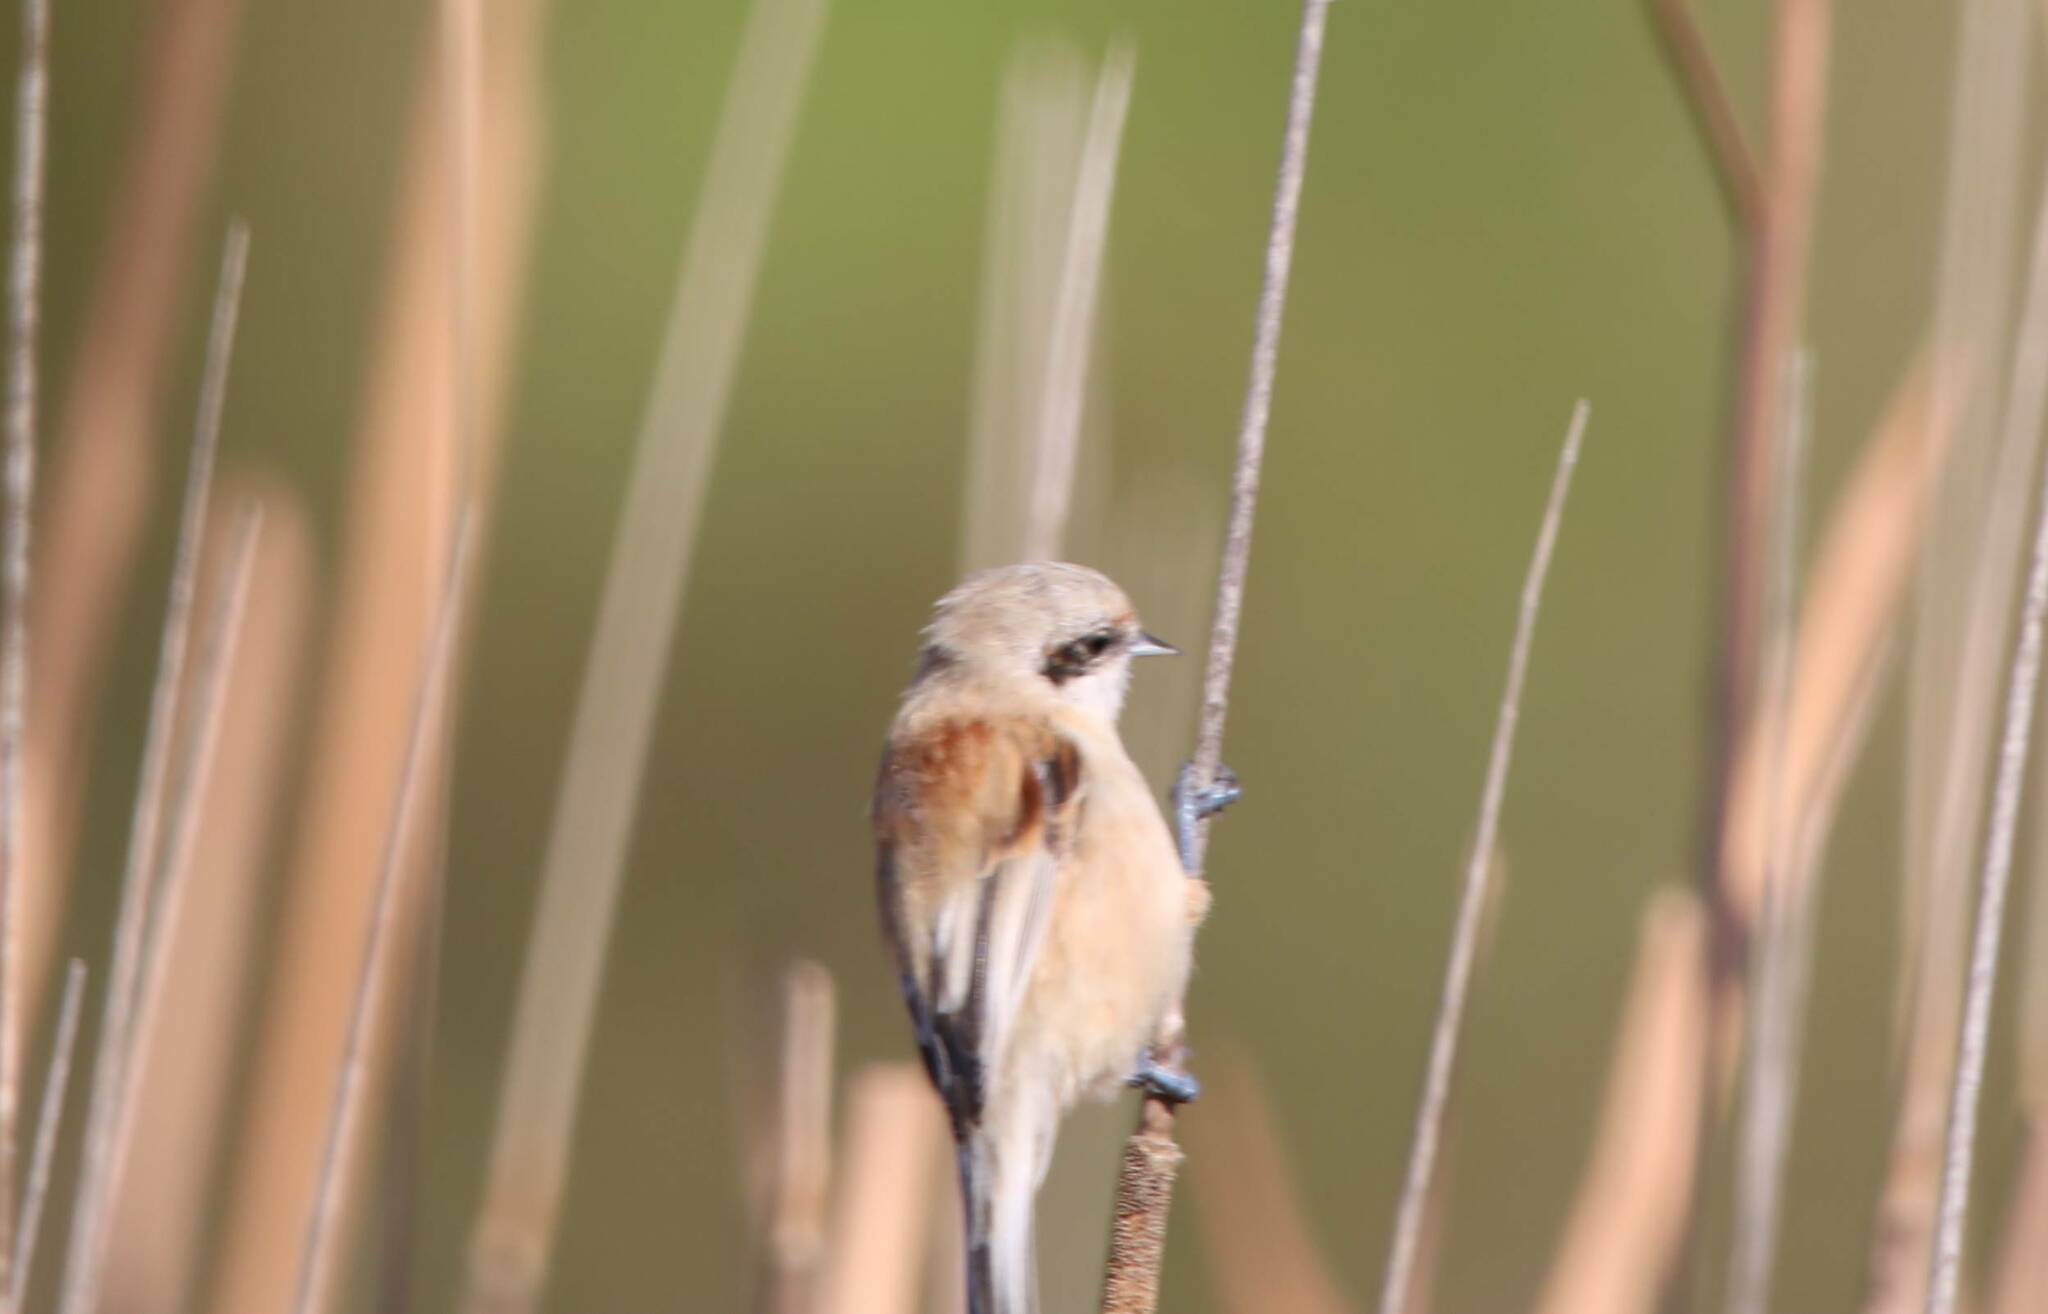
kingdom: Animalia
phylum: Chordata
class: Aves
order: Passeriformes
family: Remizidae
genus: Remiz
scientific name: Remiz pendulinus
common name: Eurasian penduline tit
